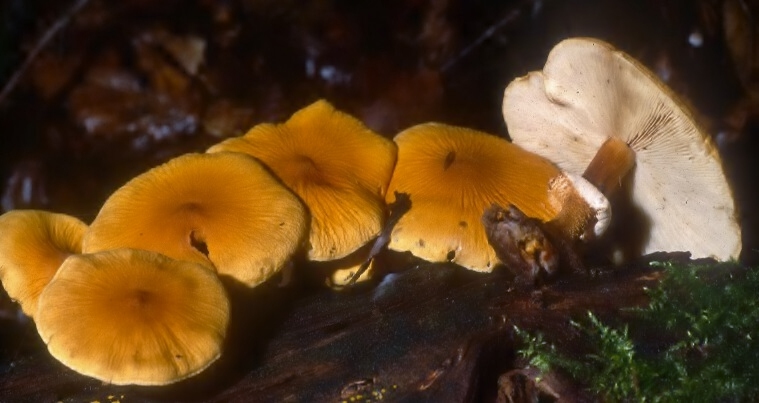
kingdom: Fungi
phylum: Basidiomycota
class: Agaricomycetes
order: Agaricales
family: Tricholomataceae
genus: Cystoderma
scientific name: Cystoderma granosum
